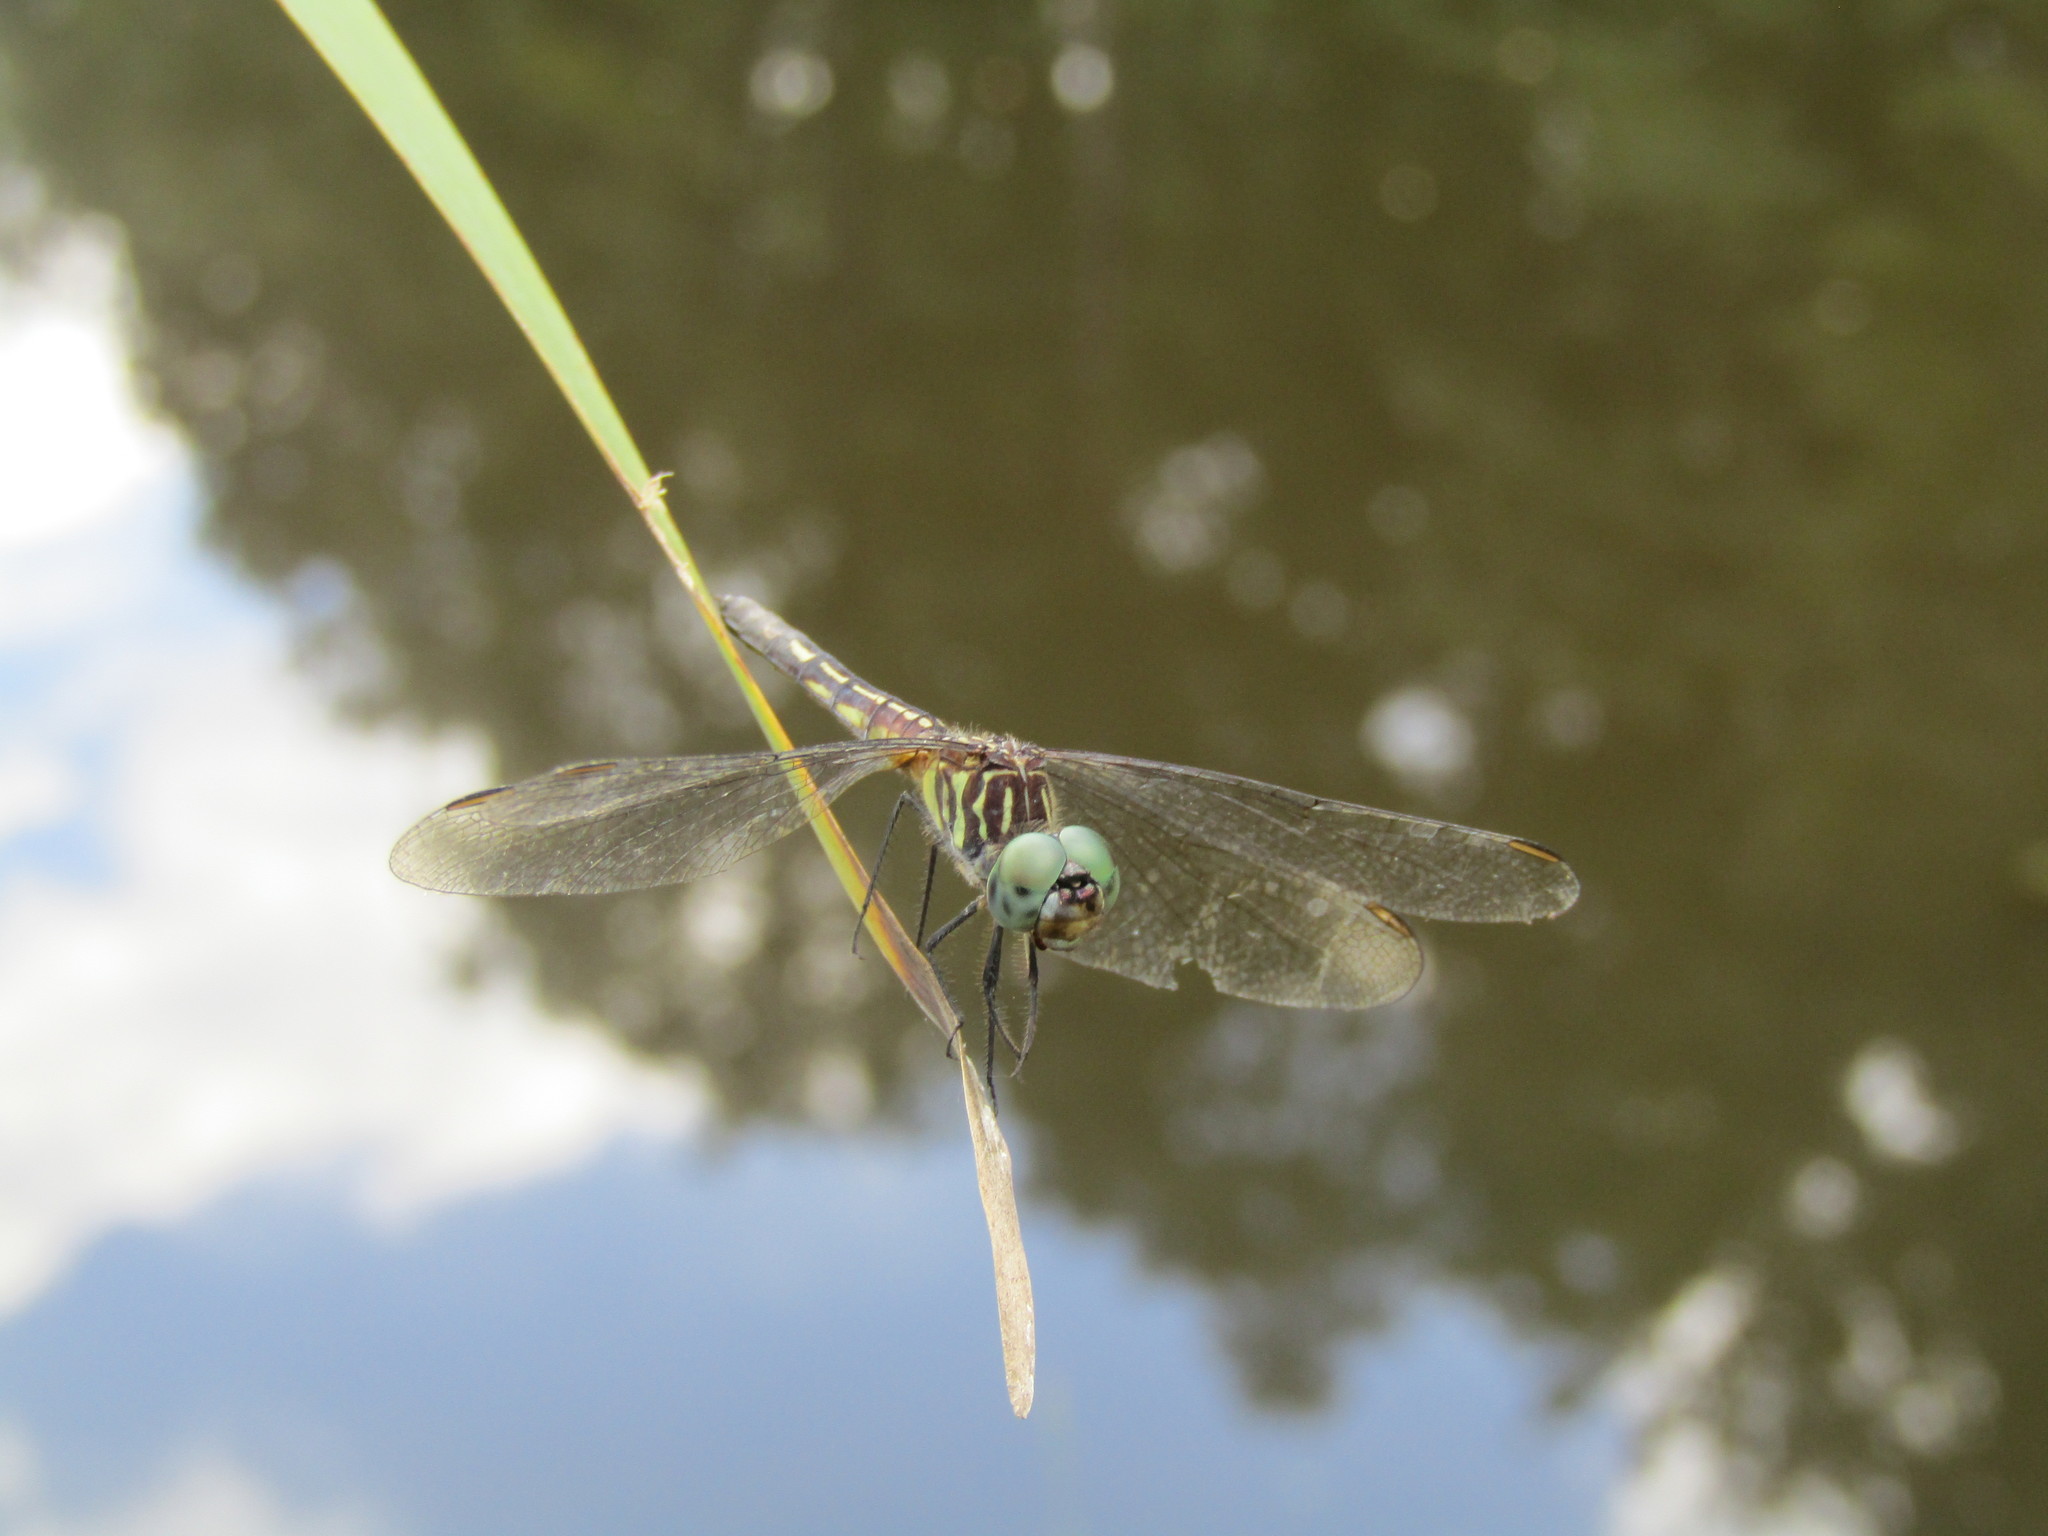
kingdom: Animalia
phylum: Arthropoda
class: Insecta
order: Odonata
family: Libellulidae
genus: Pachydiplax
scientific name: Pachydiplax longipennis
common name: Blue dasher
